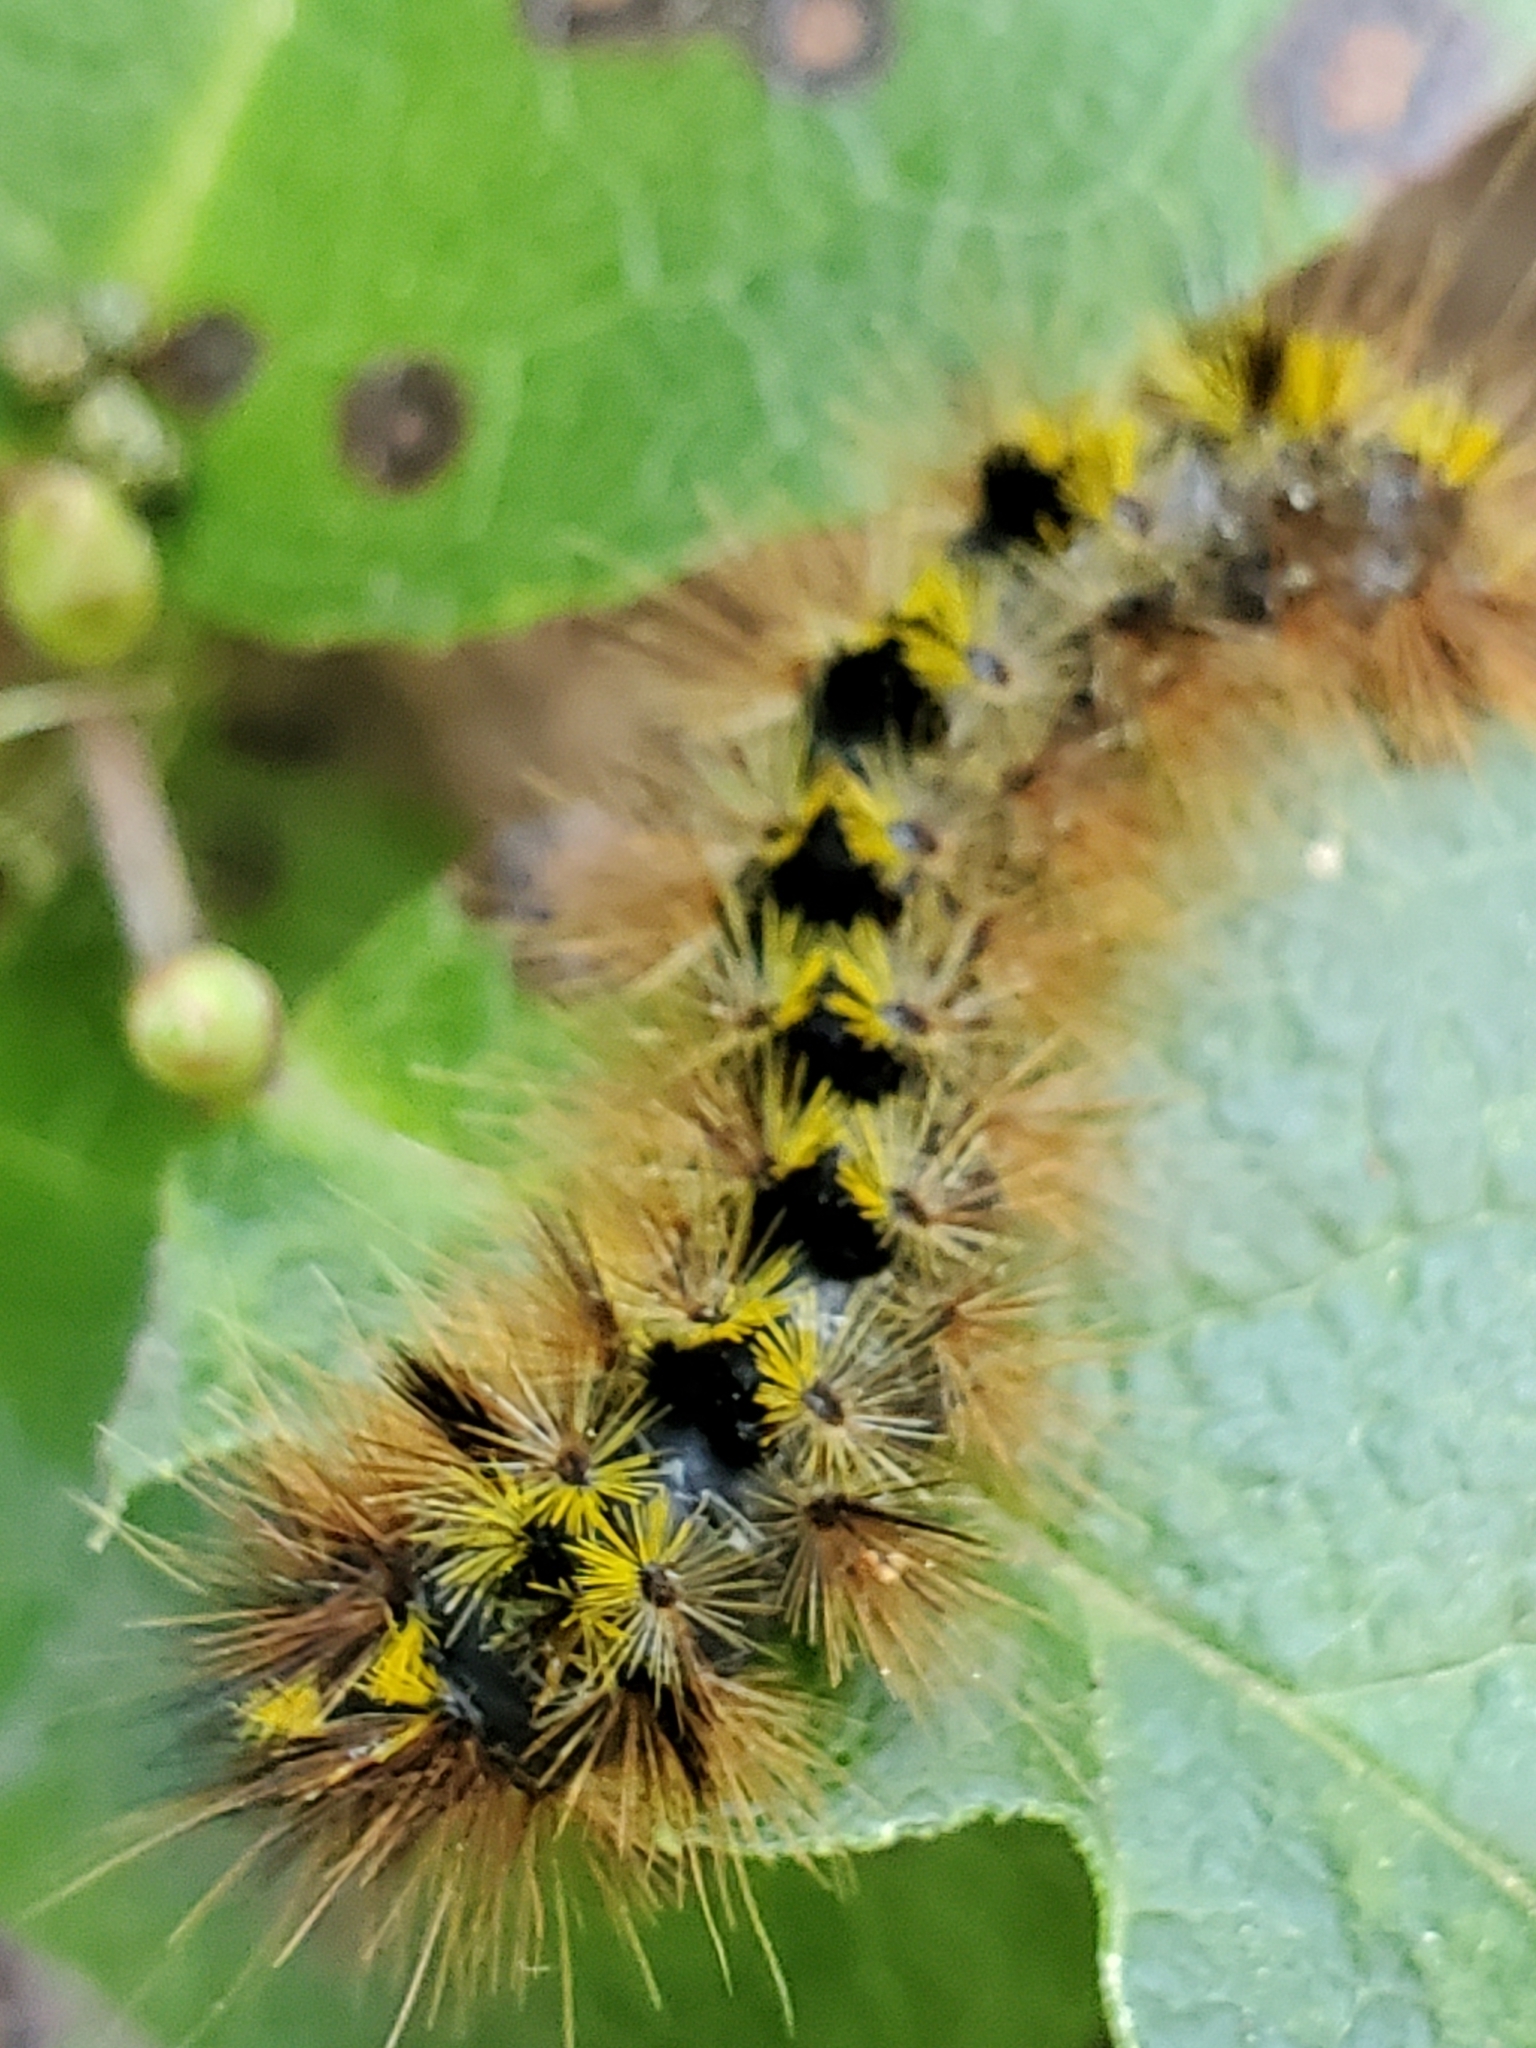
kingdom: Animalia
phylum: Arthropoda
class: Insecta
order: Lepidoptera
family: Erebidae
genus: Lophocampa
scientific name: Lophocampa argentata
